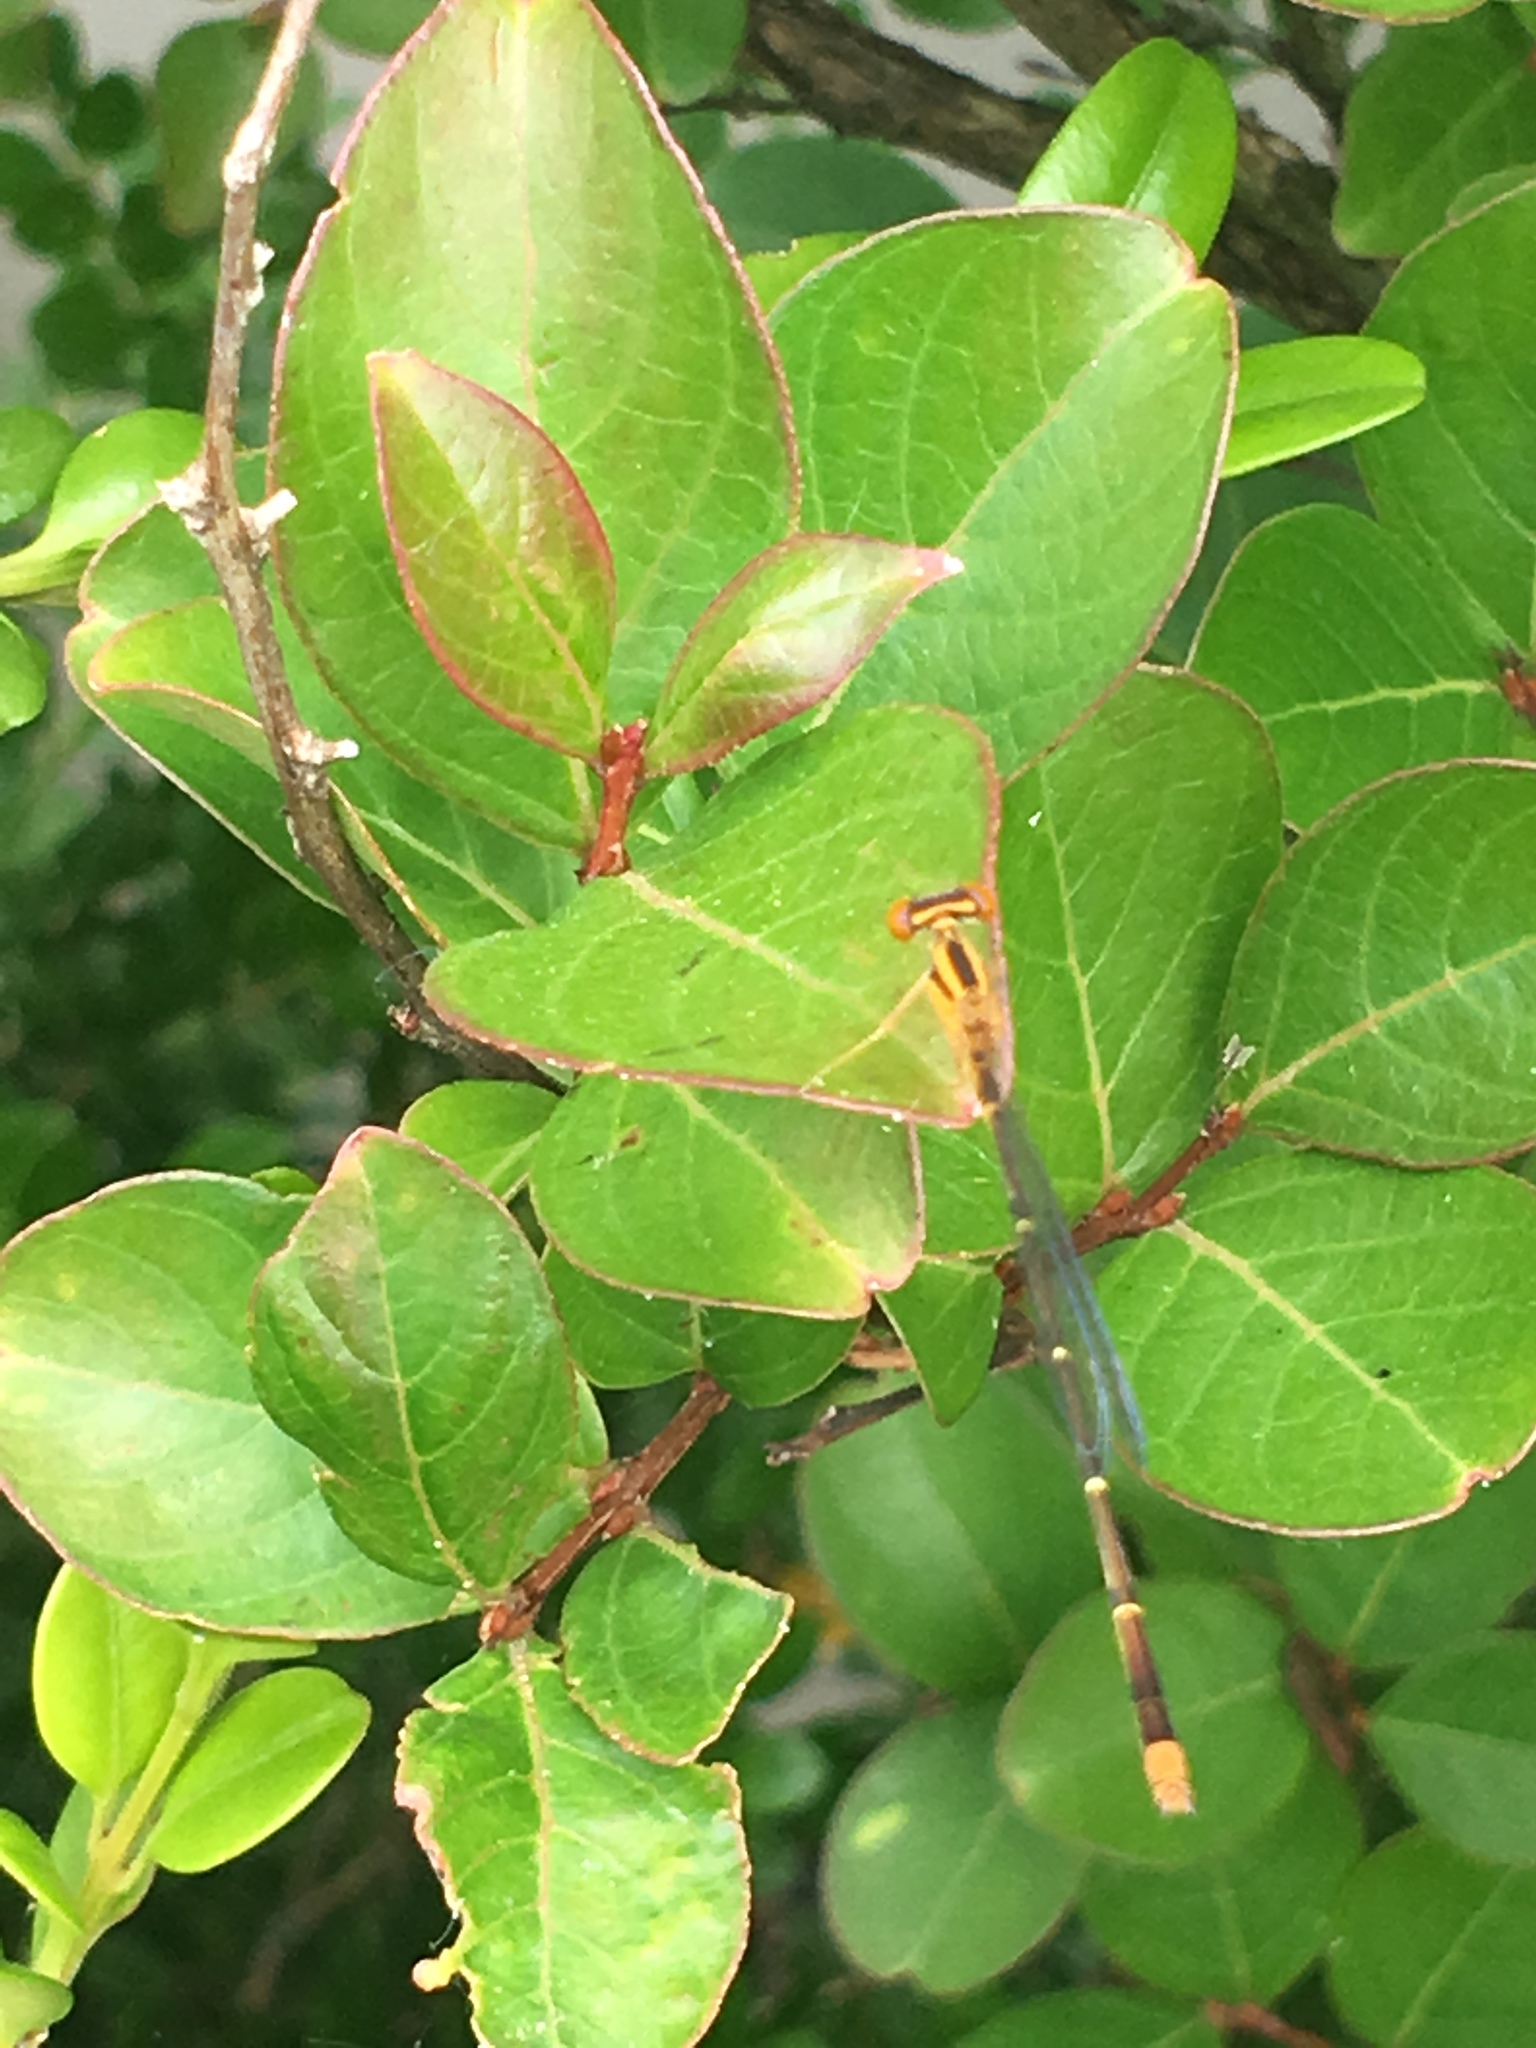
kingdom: Animalia
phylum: Arthropoda
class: Insecta
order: Odonata
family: Coenagrionidae
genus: Enallagma
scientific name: Enallagma signatum
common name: Orange bluet
